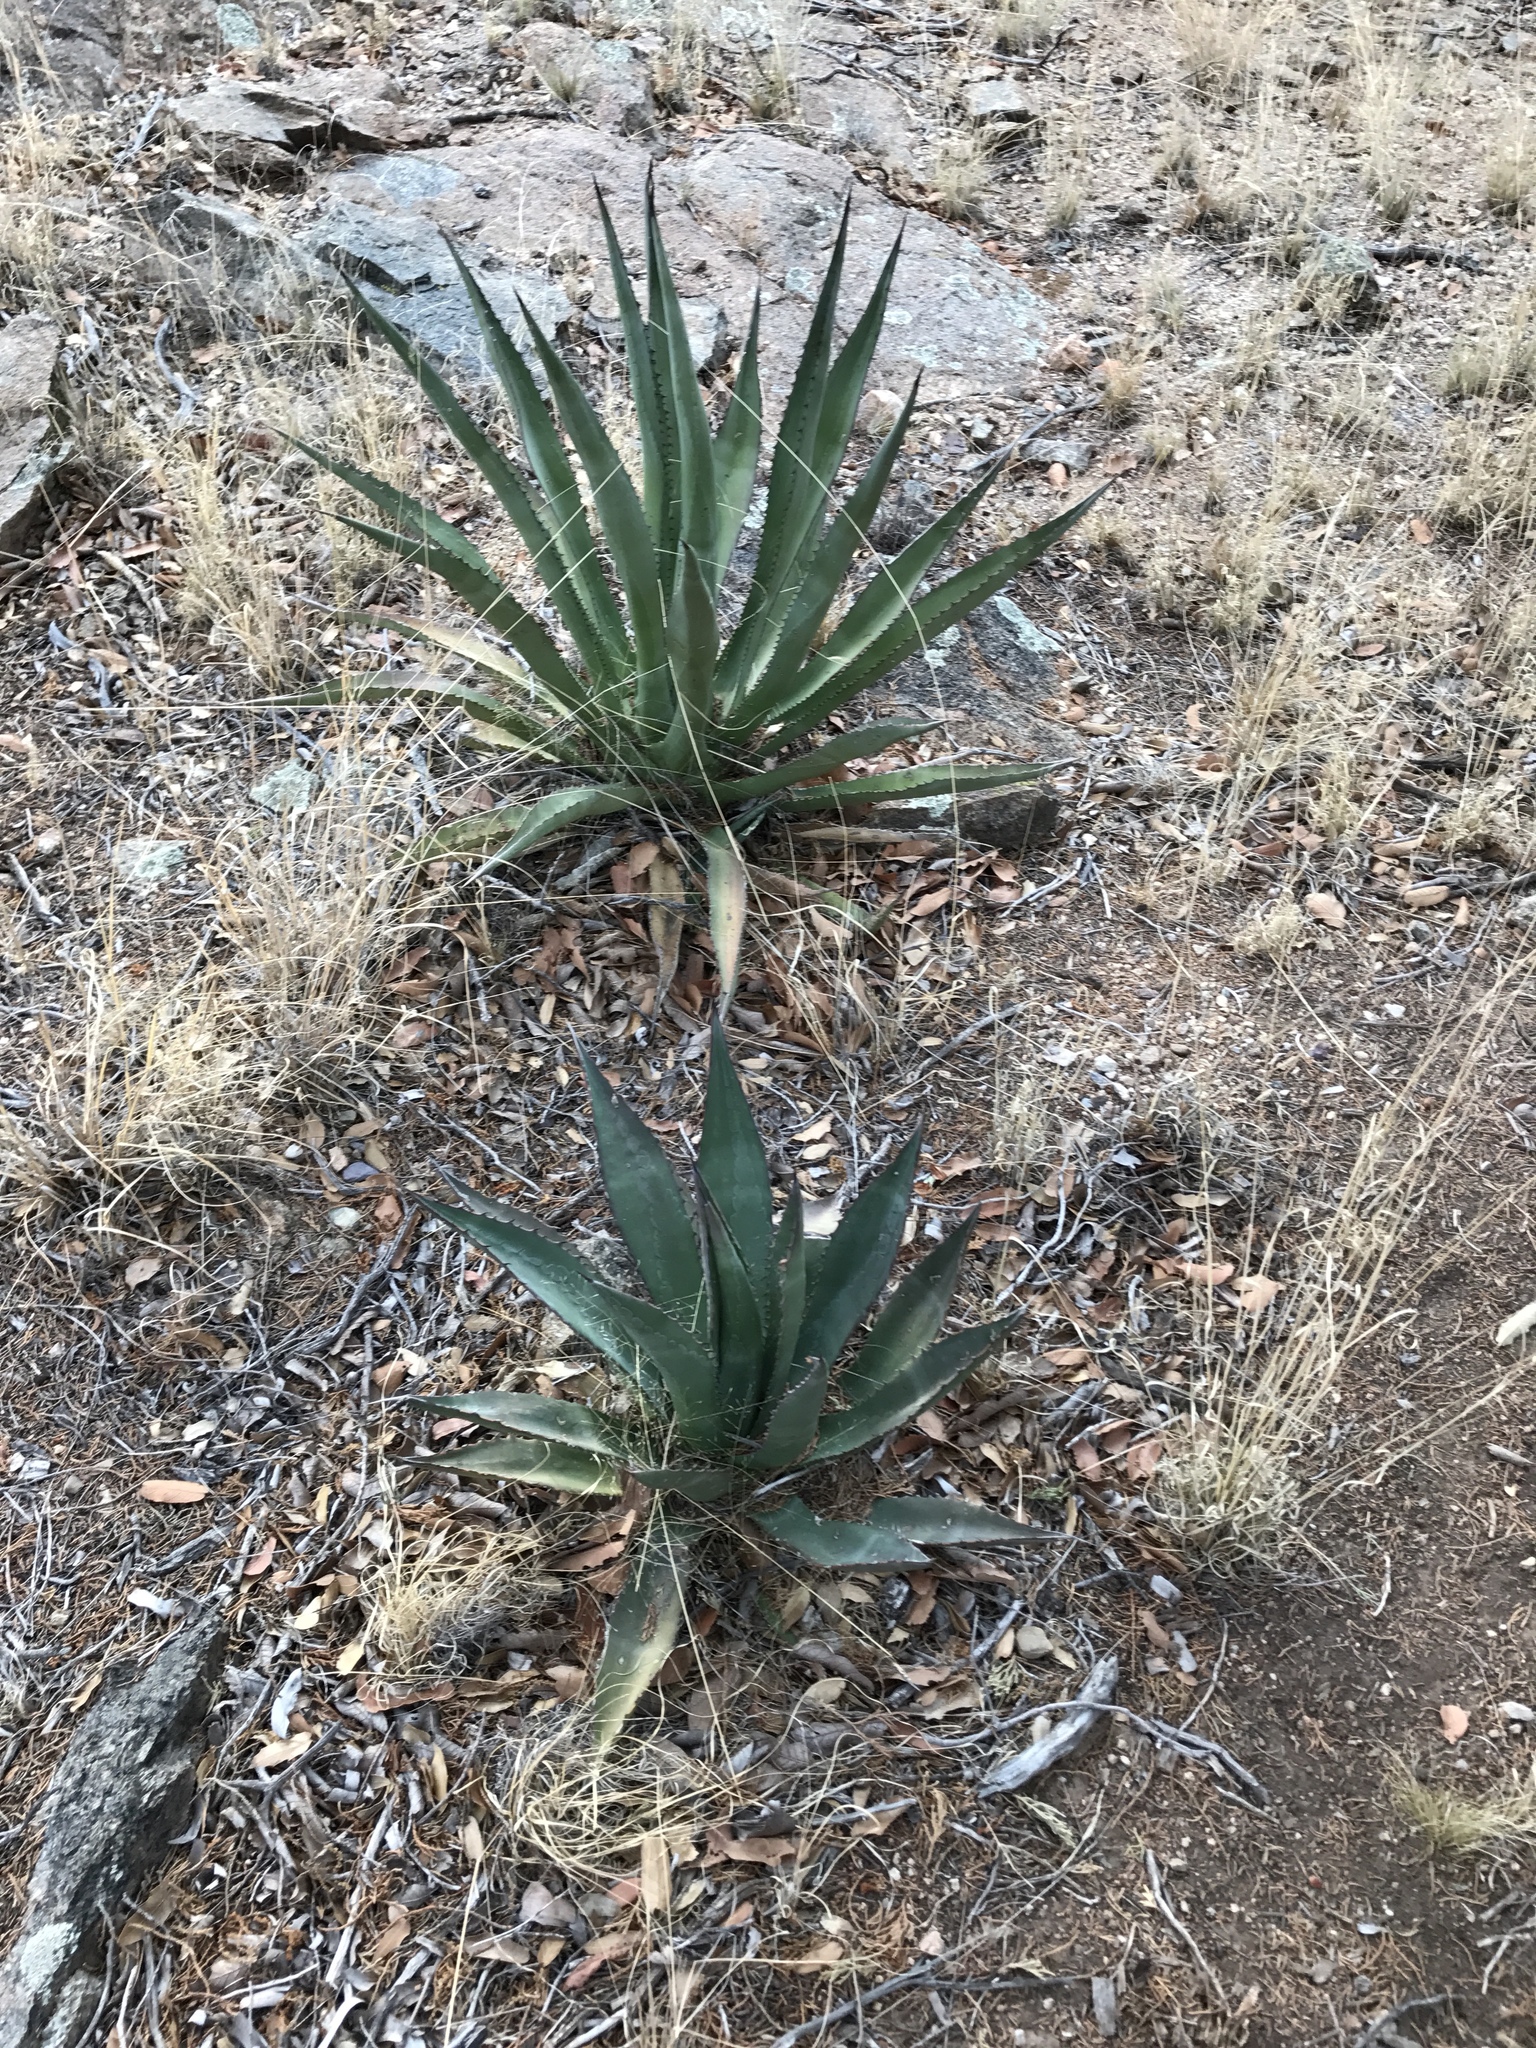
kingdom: Plantae
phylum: Tracheophyta
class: Liliopsida
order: Asparagales
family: Asparagaceae
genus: Agave
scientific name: Agave palmeri
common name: Palmer agave
